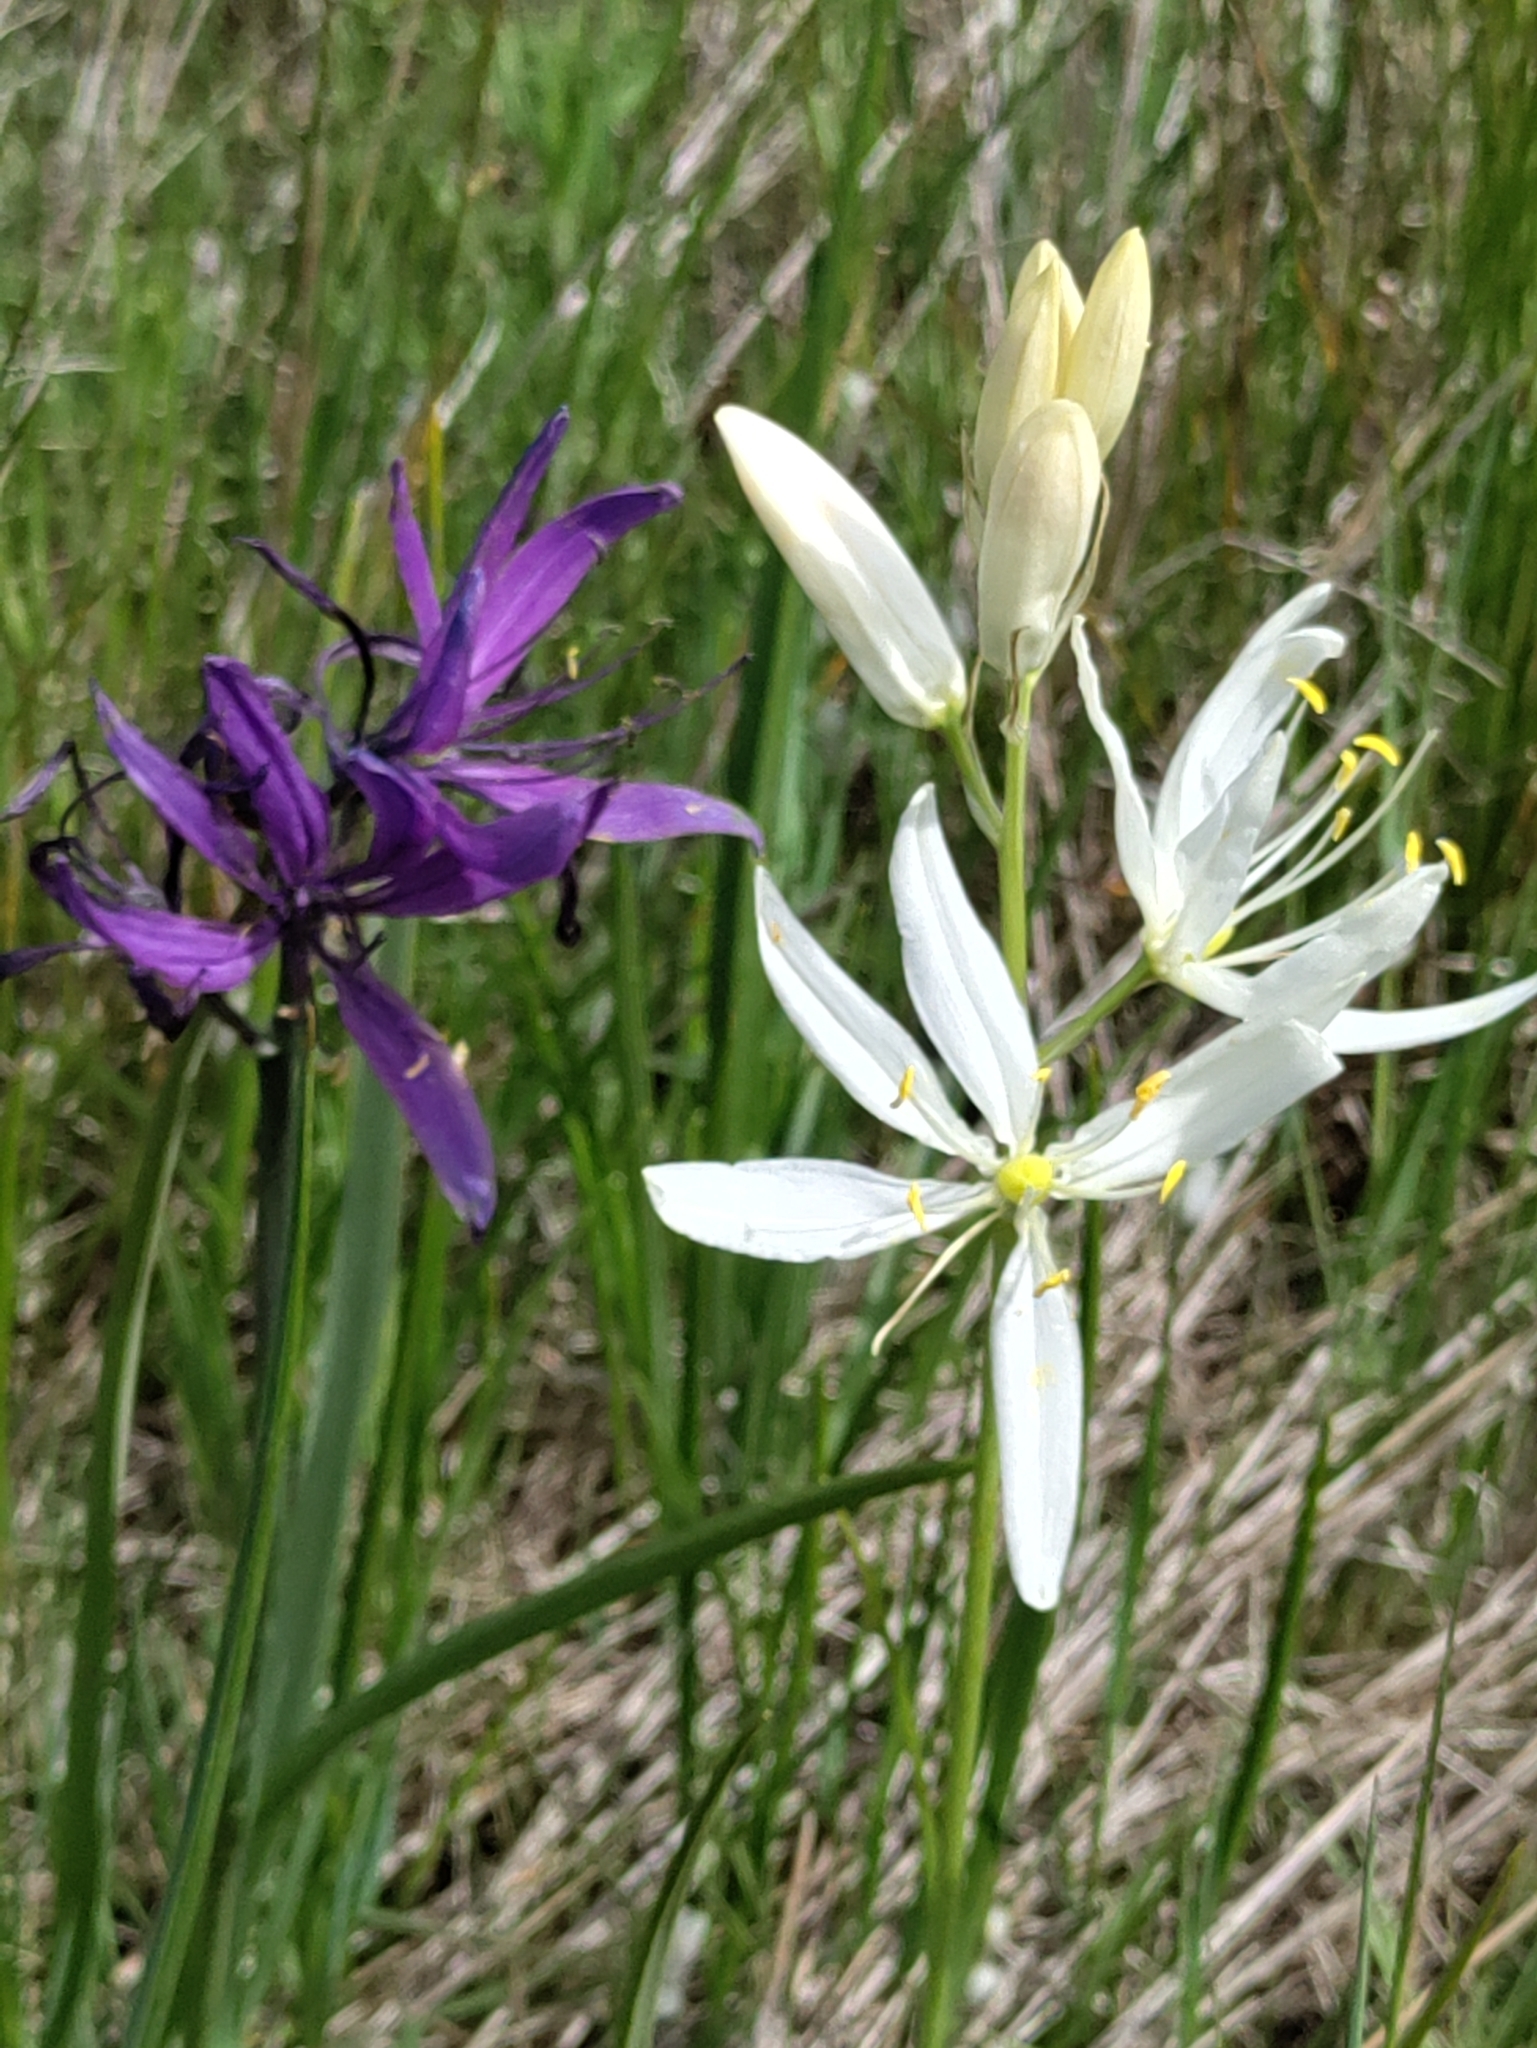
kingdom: Plantae
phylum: Tracheophyta
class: Liliopsida
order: Asparagales
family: Asparagaceae
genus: Camassia
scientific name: Camassia quamash
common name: Common camas
